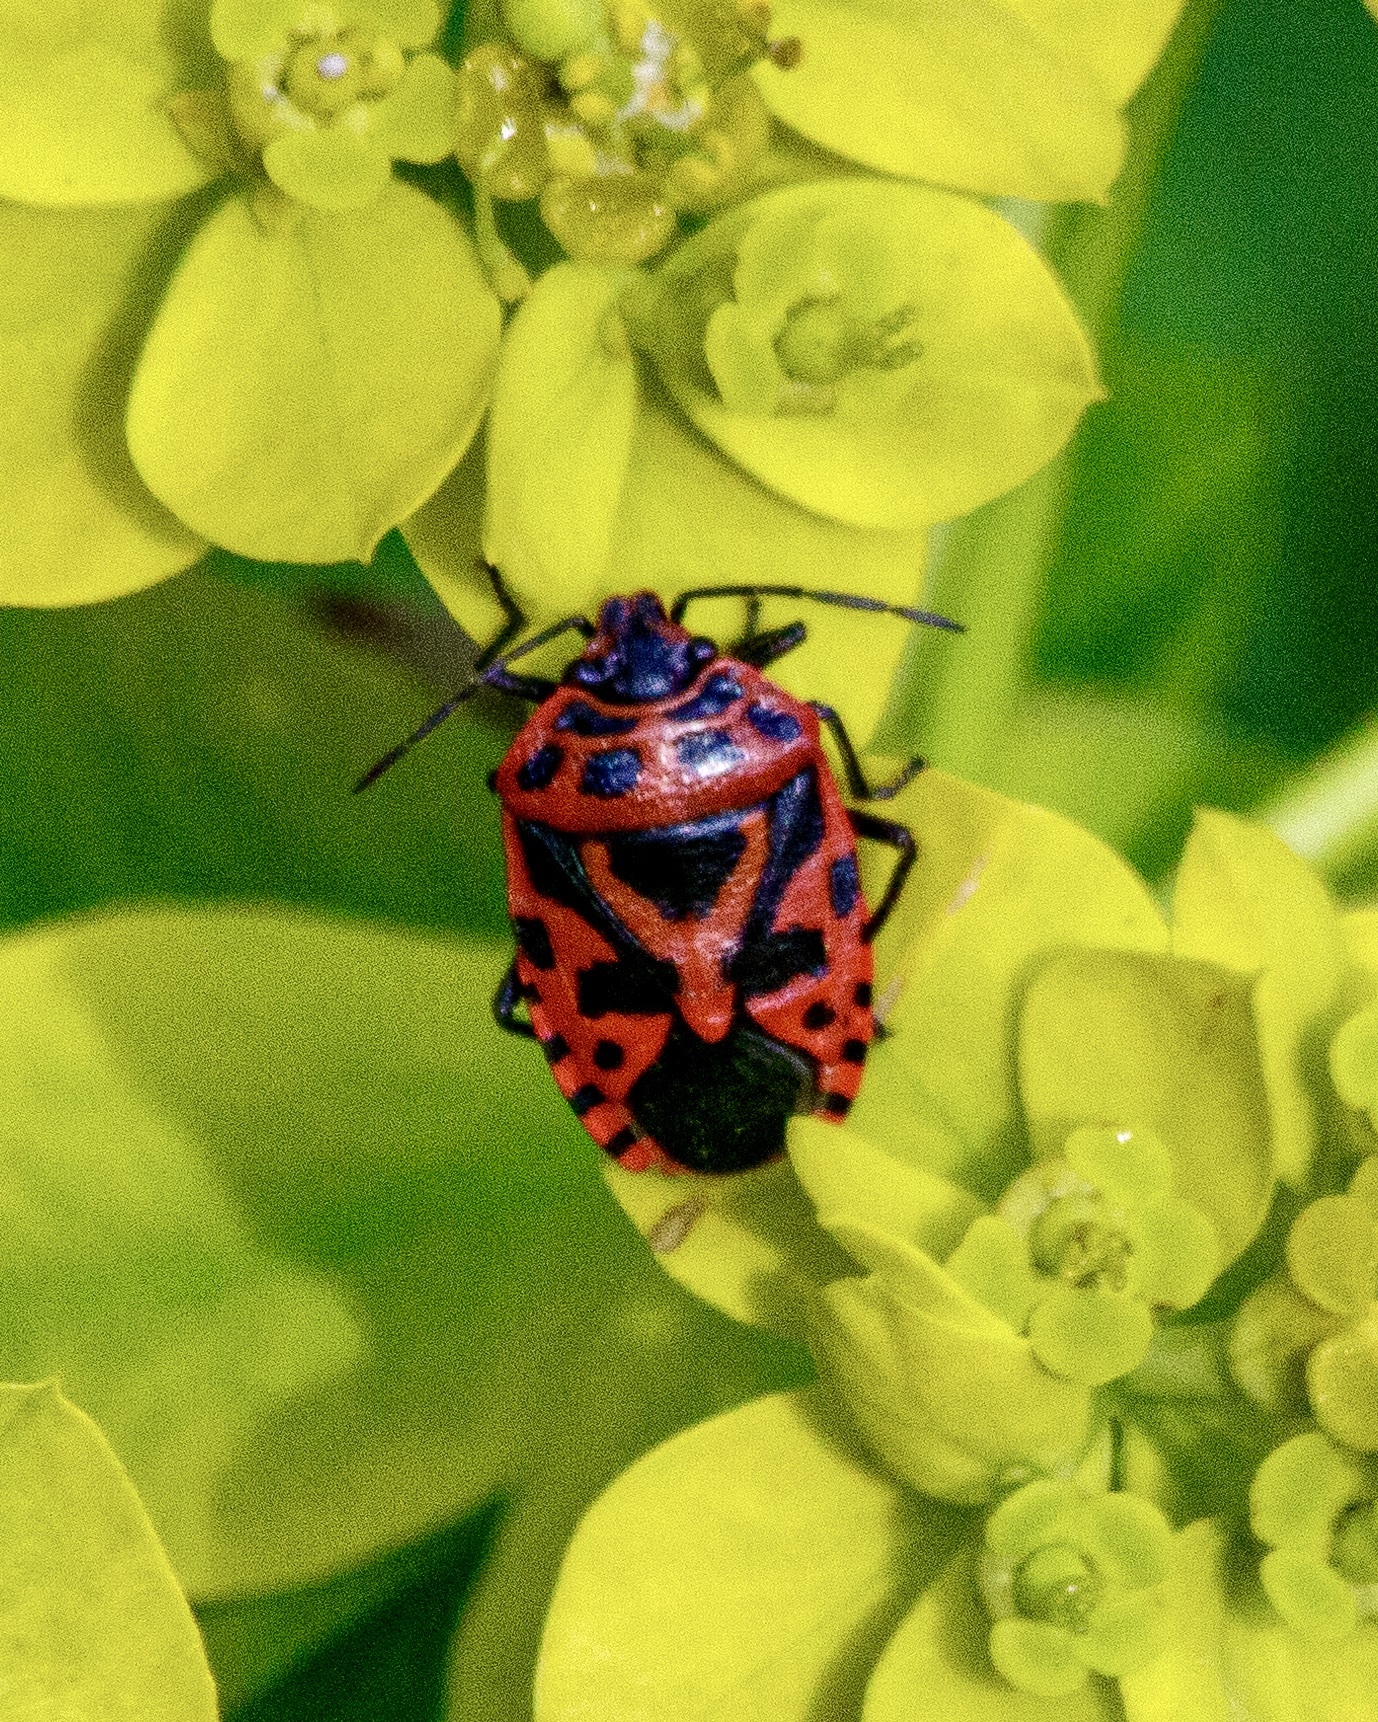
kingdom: Animalia
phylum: Arthropoda
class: Insecta
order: Hemiptera
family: Pentatomidae
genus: Eurydema
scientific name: Eurydema ventralis
